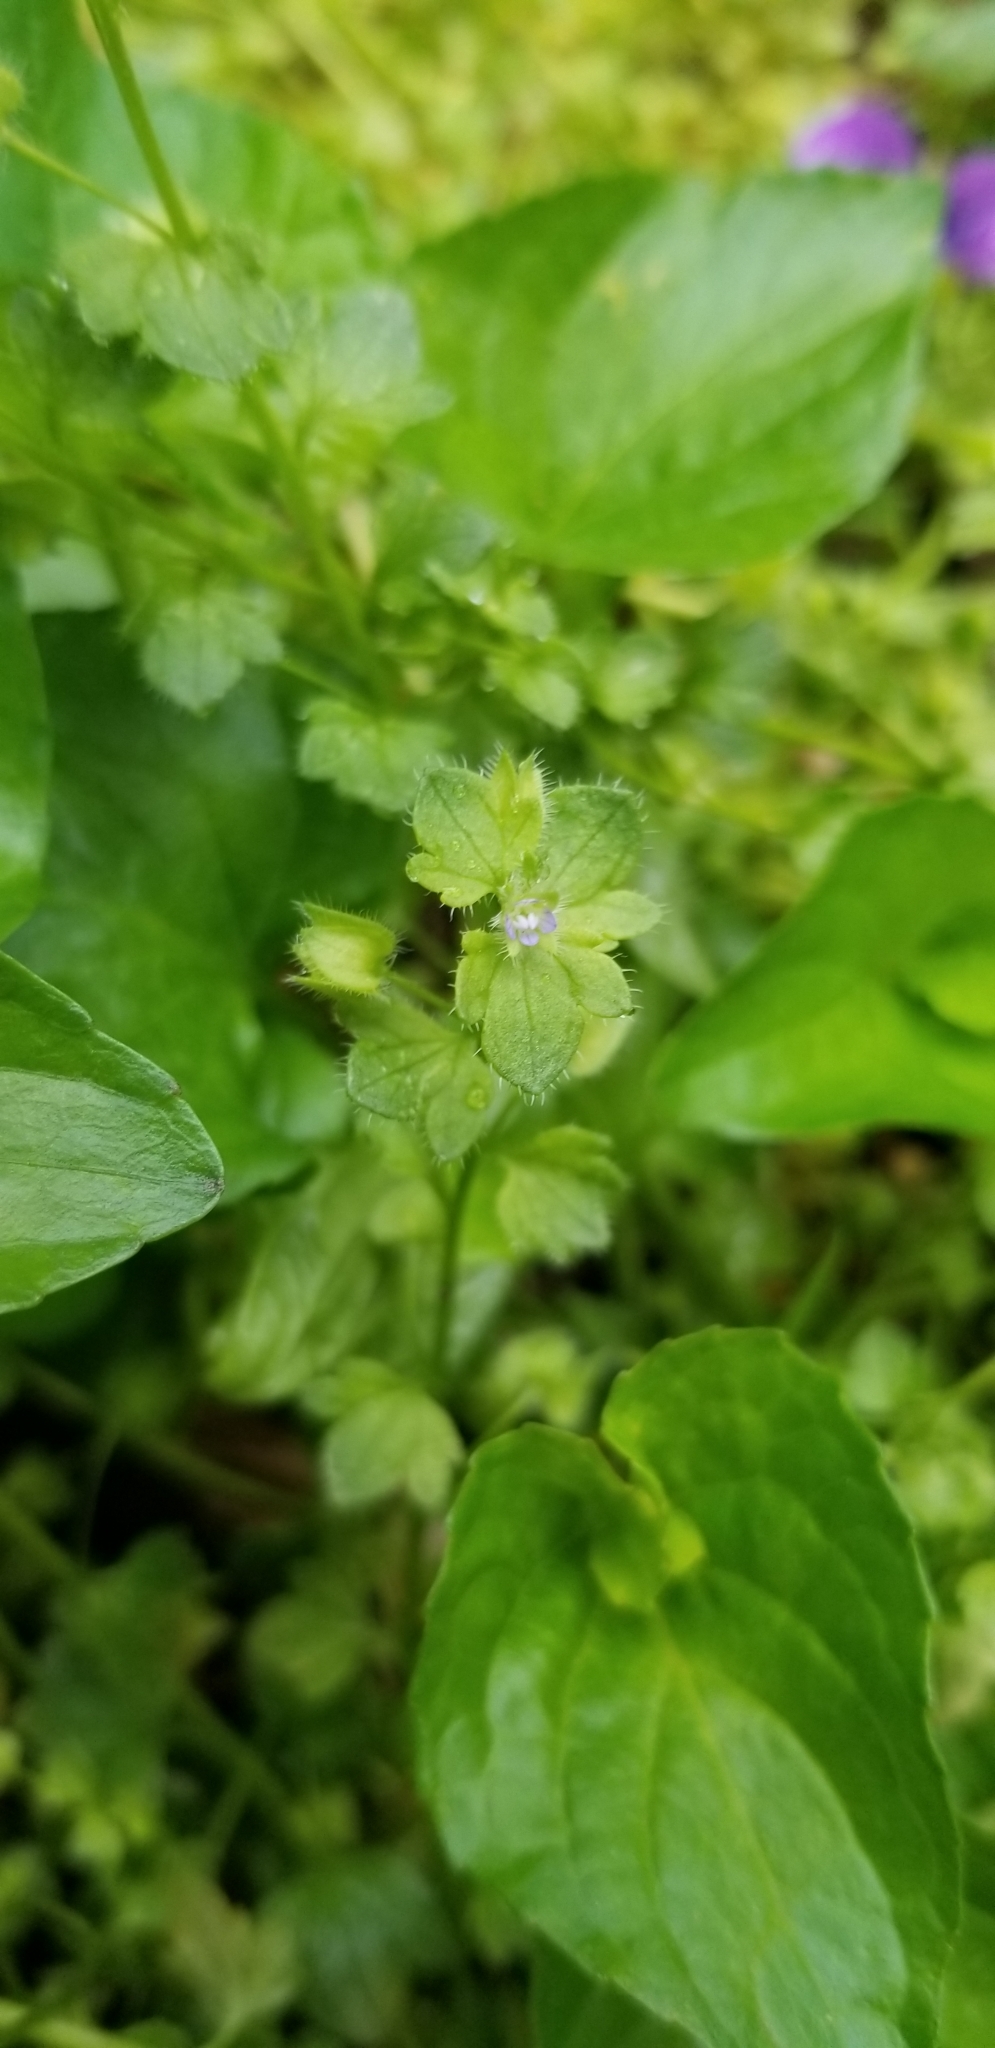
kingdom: Plantae
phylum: Tracheophyta
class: Magnoliopsida
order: Lamiales
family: Plantaginaceae
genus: Veronica
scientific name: Veronica hederifolia
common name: Ivy-leaved speedwell
